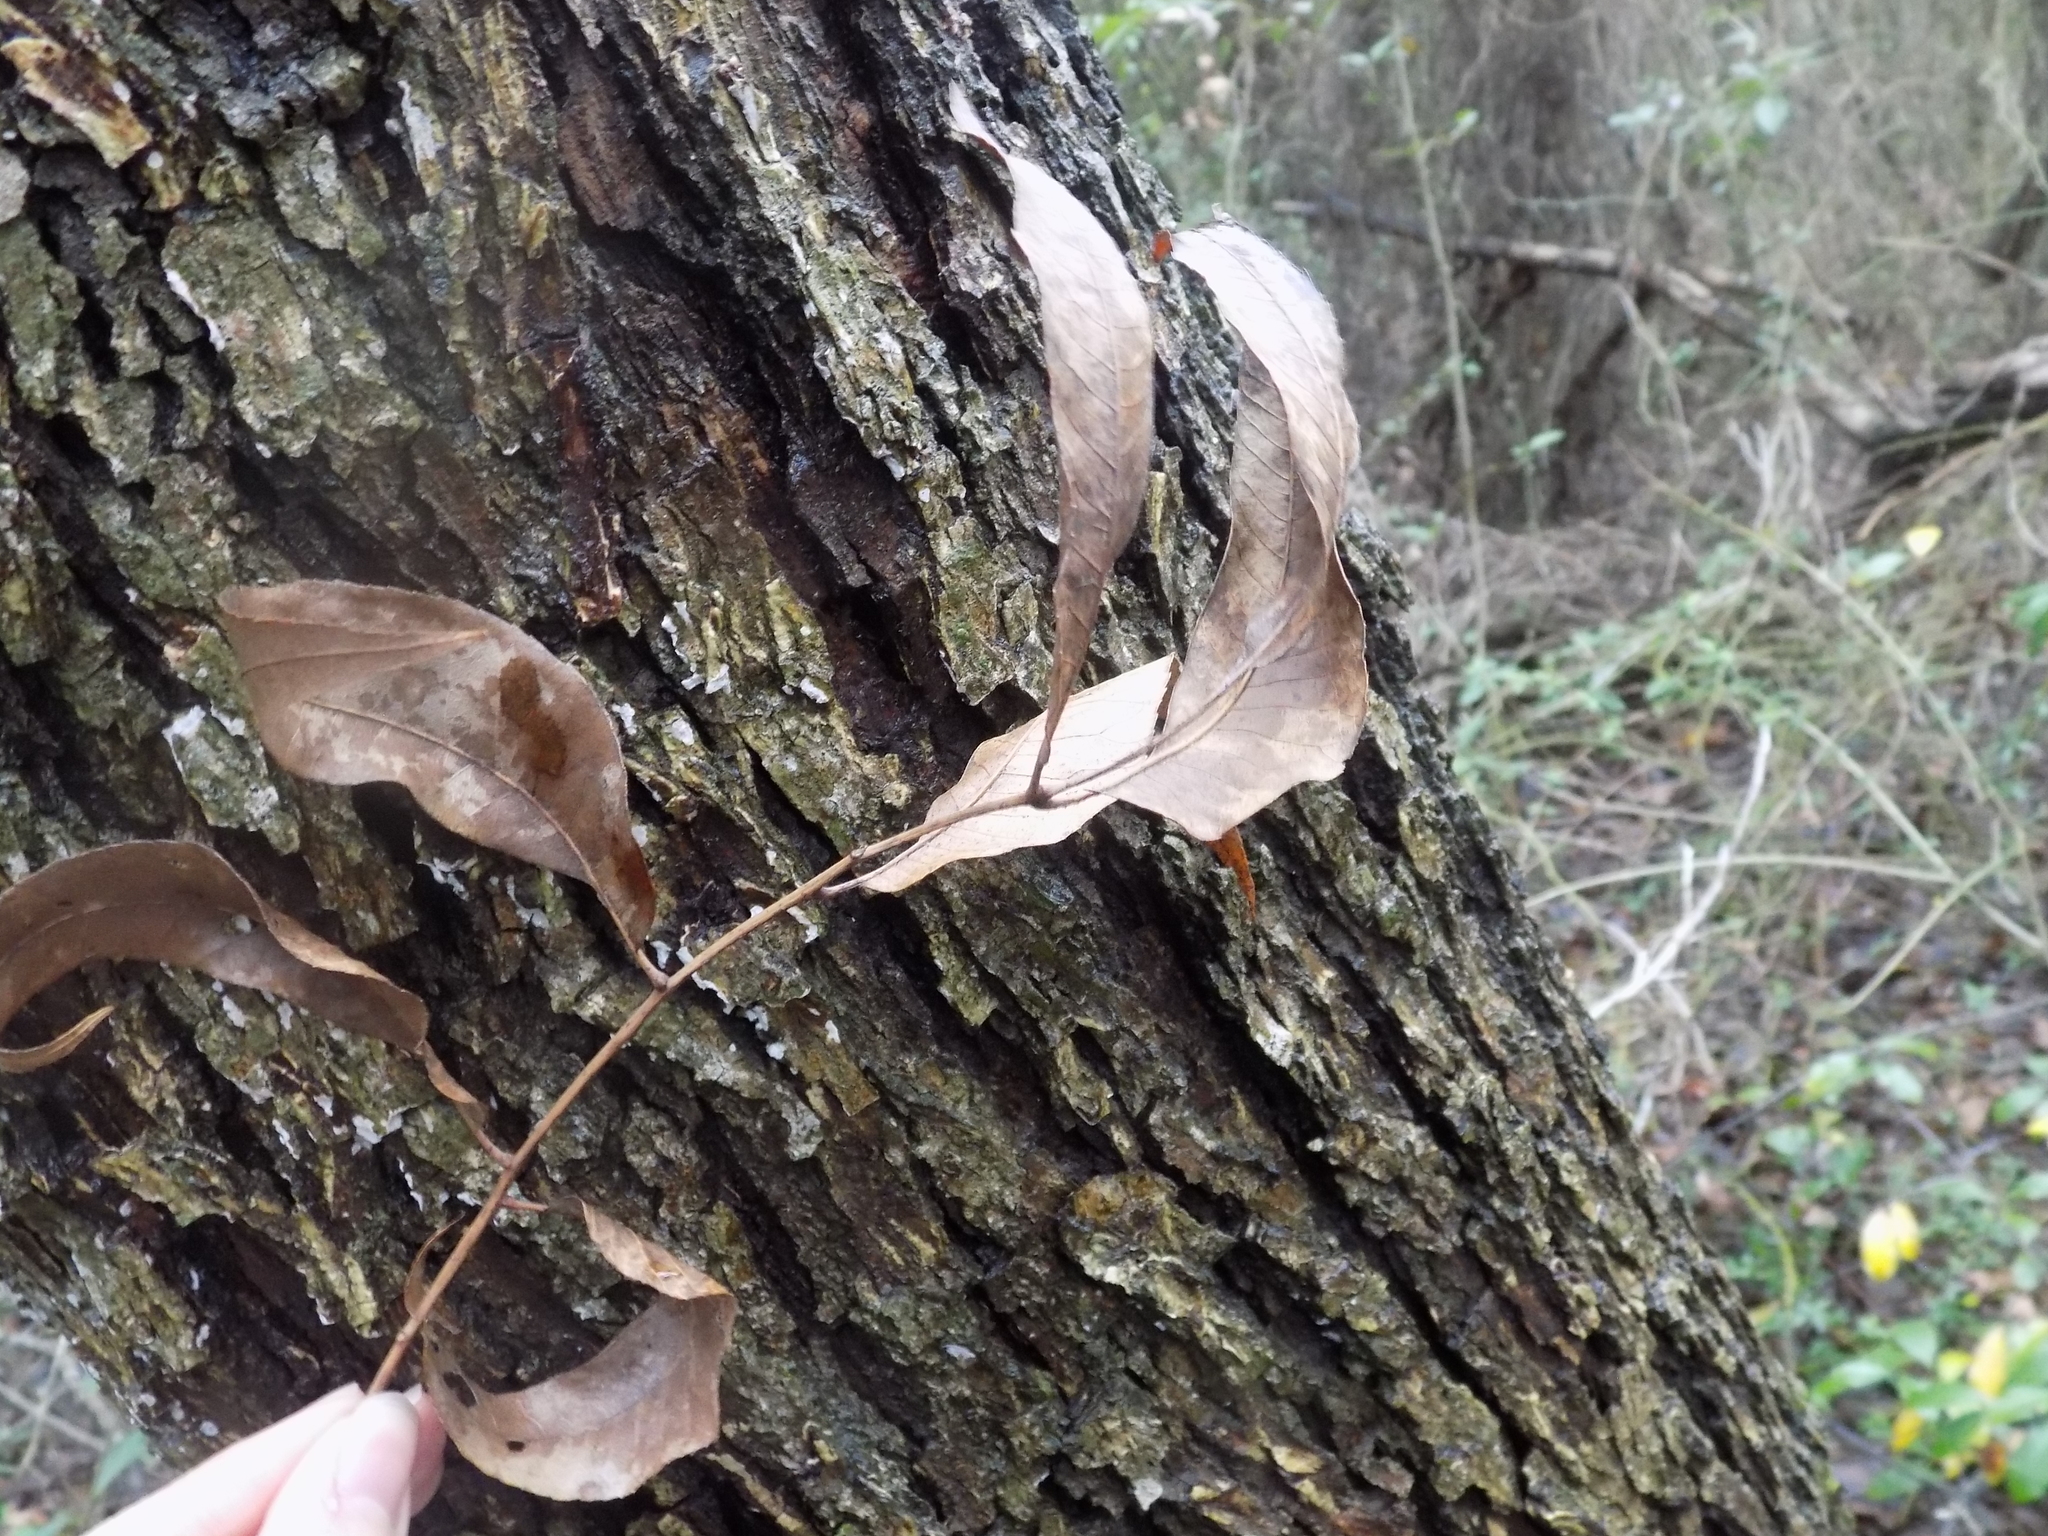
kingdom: Plantae
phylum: Tracheophyta
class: Magnoliopsida
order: Fagales
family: Juglandaceae
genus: Carya
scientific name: Carya illinoinensis
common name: Pecan
